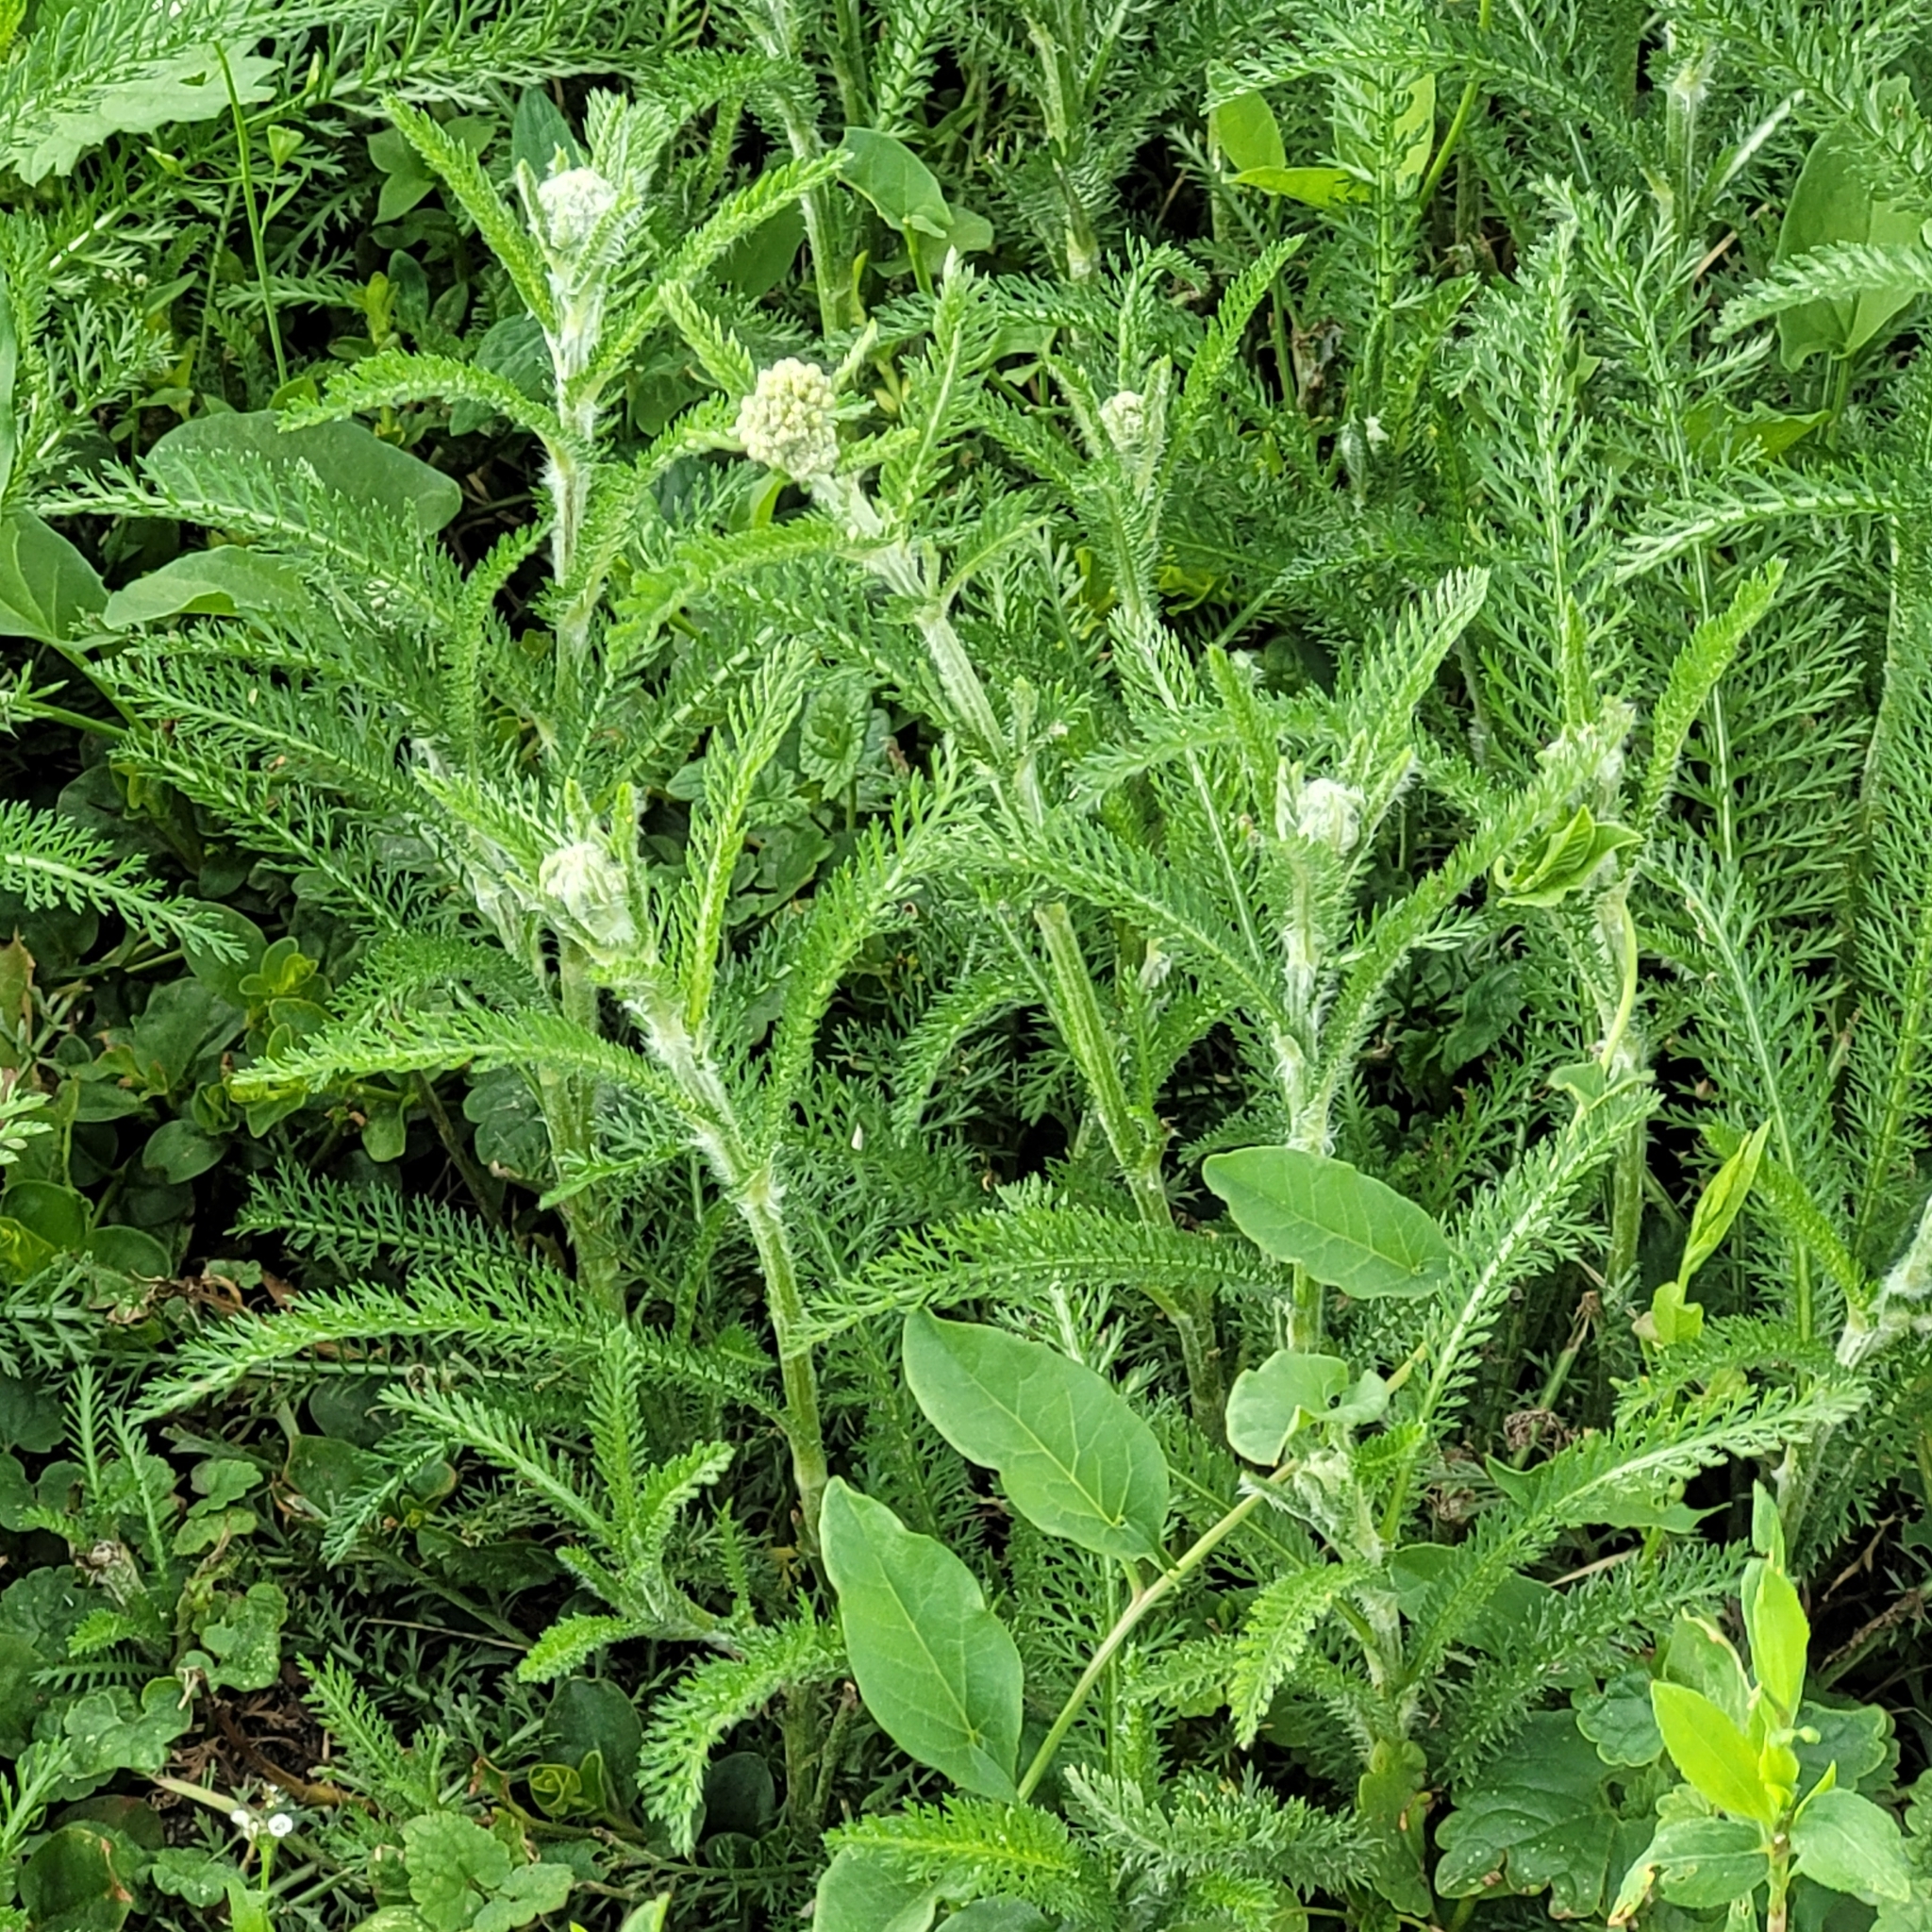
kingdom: Plantae
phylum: Tracheophyta
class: Magnoliopsida
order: Asterales
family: Asteraceae
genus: Achillea
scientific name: Achillea millefolium
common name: Yarrow
